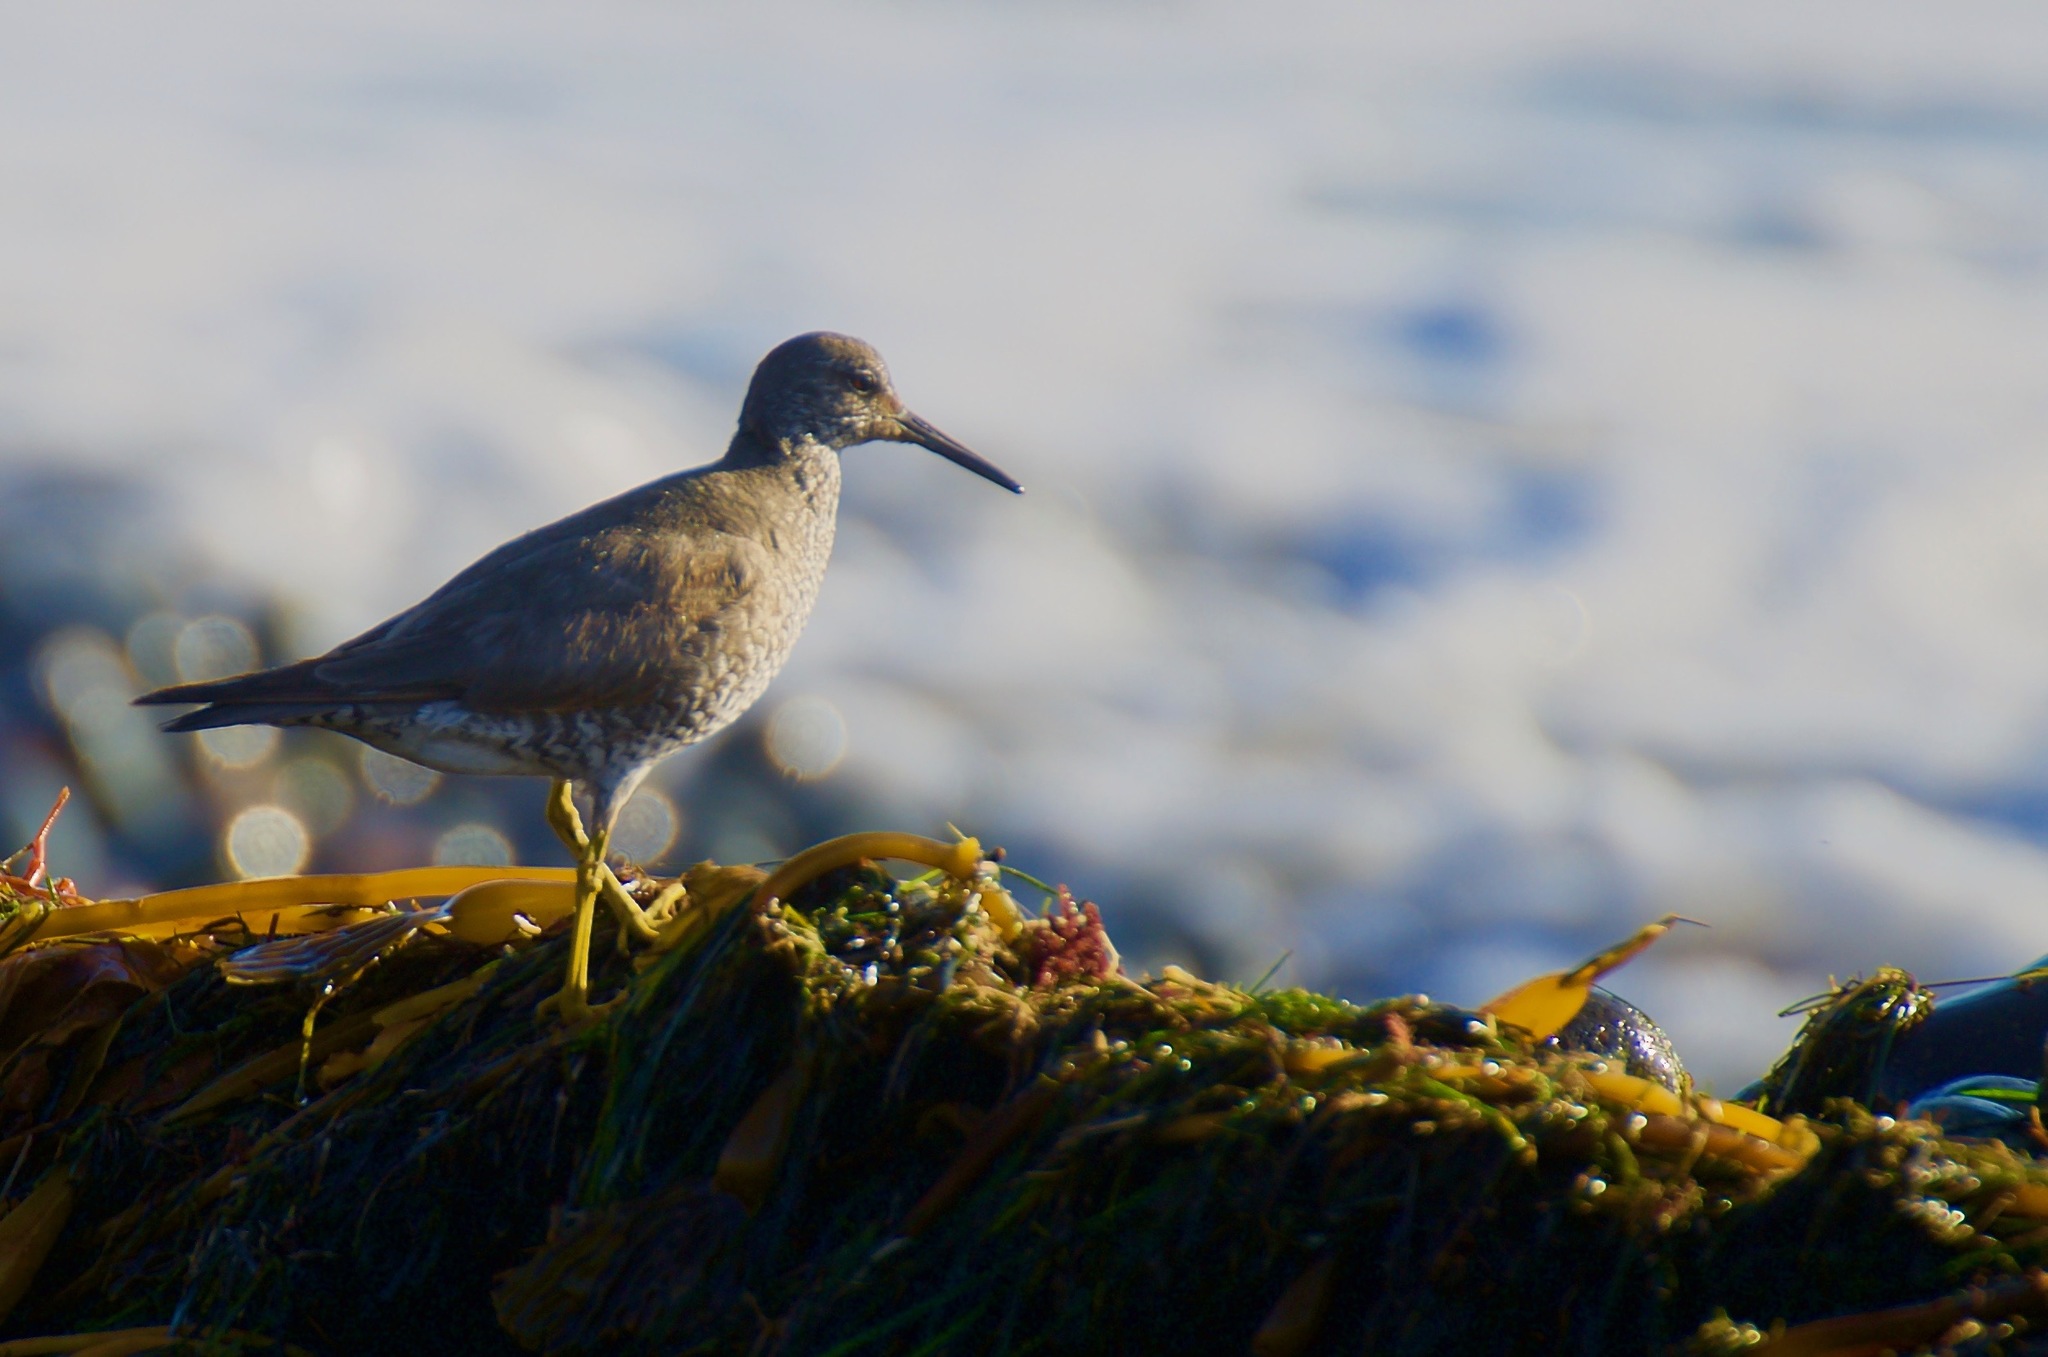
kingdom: Animalia
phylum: Chordata
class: Aves
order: Charadriiformes
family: Scolopacidae
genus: Tringa
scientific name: Tringa incana
